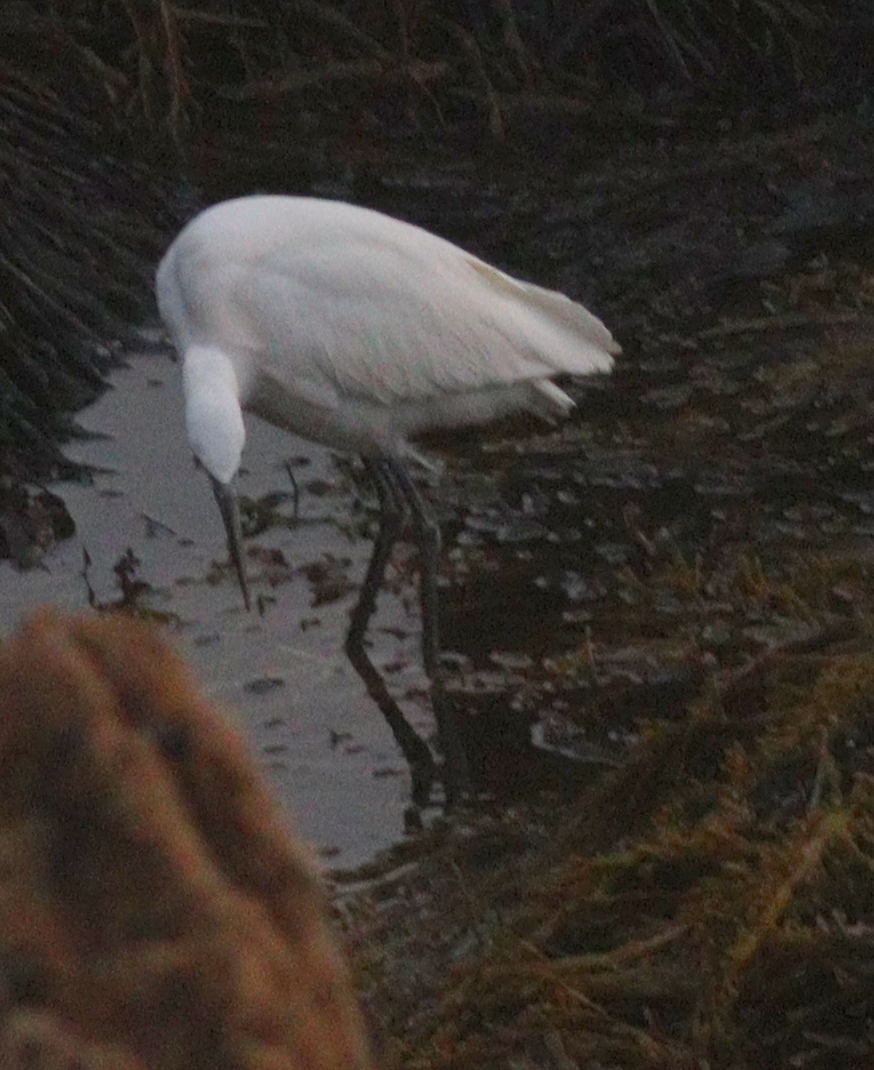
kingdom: Animalia
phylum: Chordata
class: Aves
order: Pelecaniformes
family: Ardeidae
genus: Egretta
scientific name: Egretta garzetta
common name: Little egret
